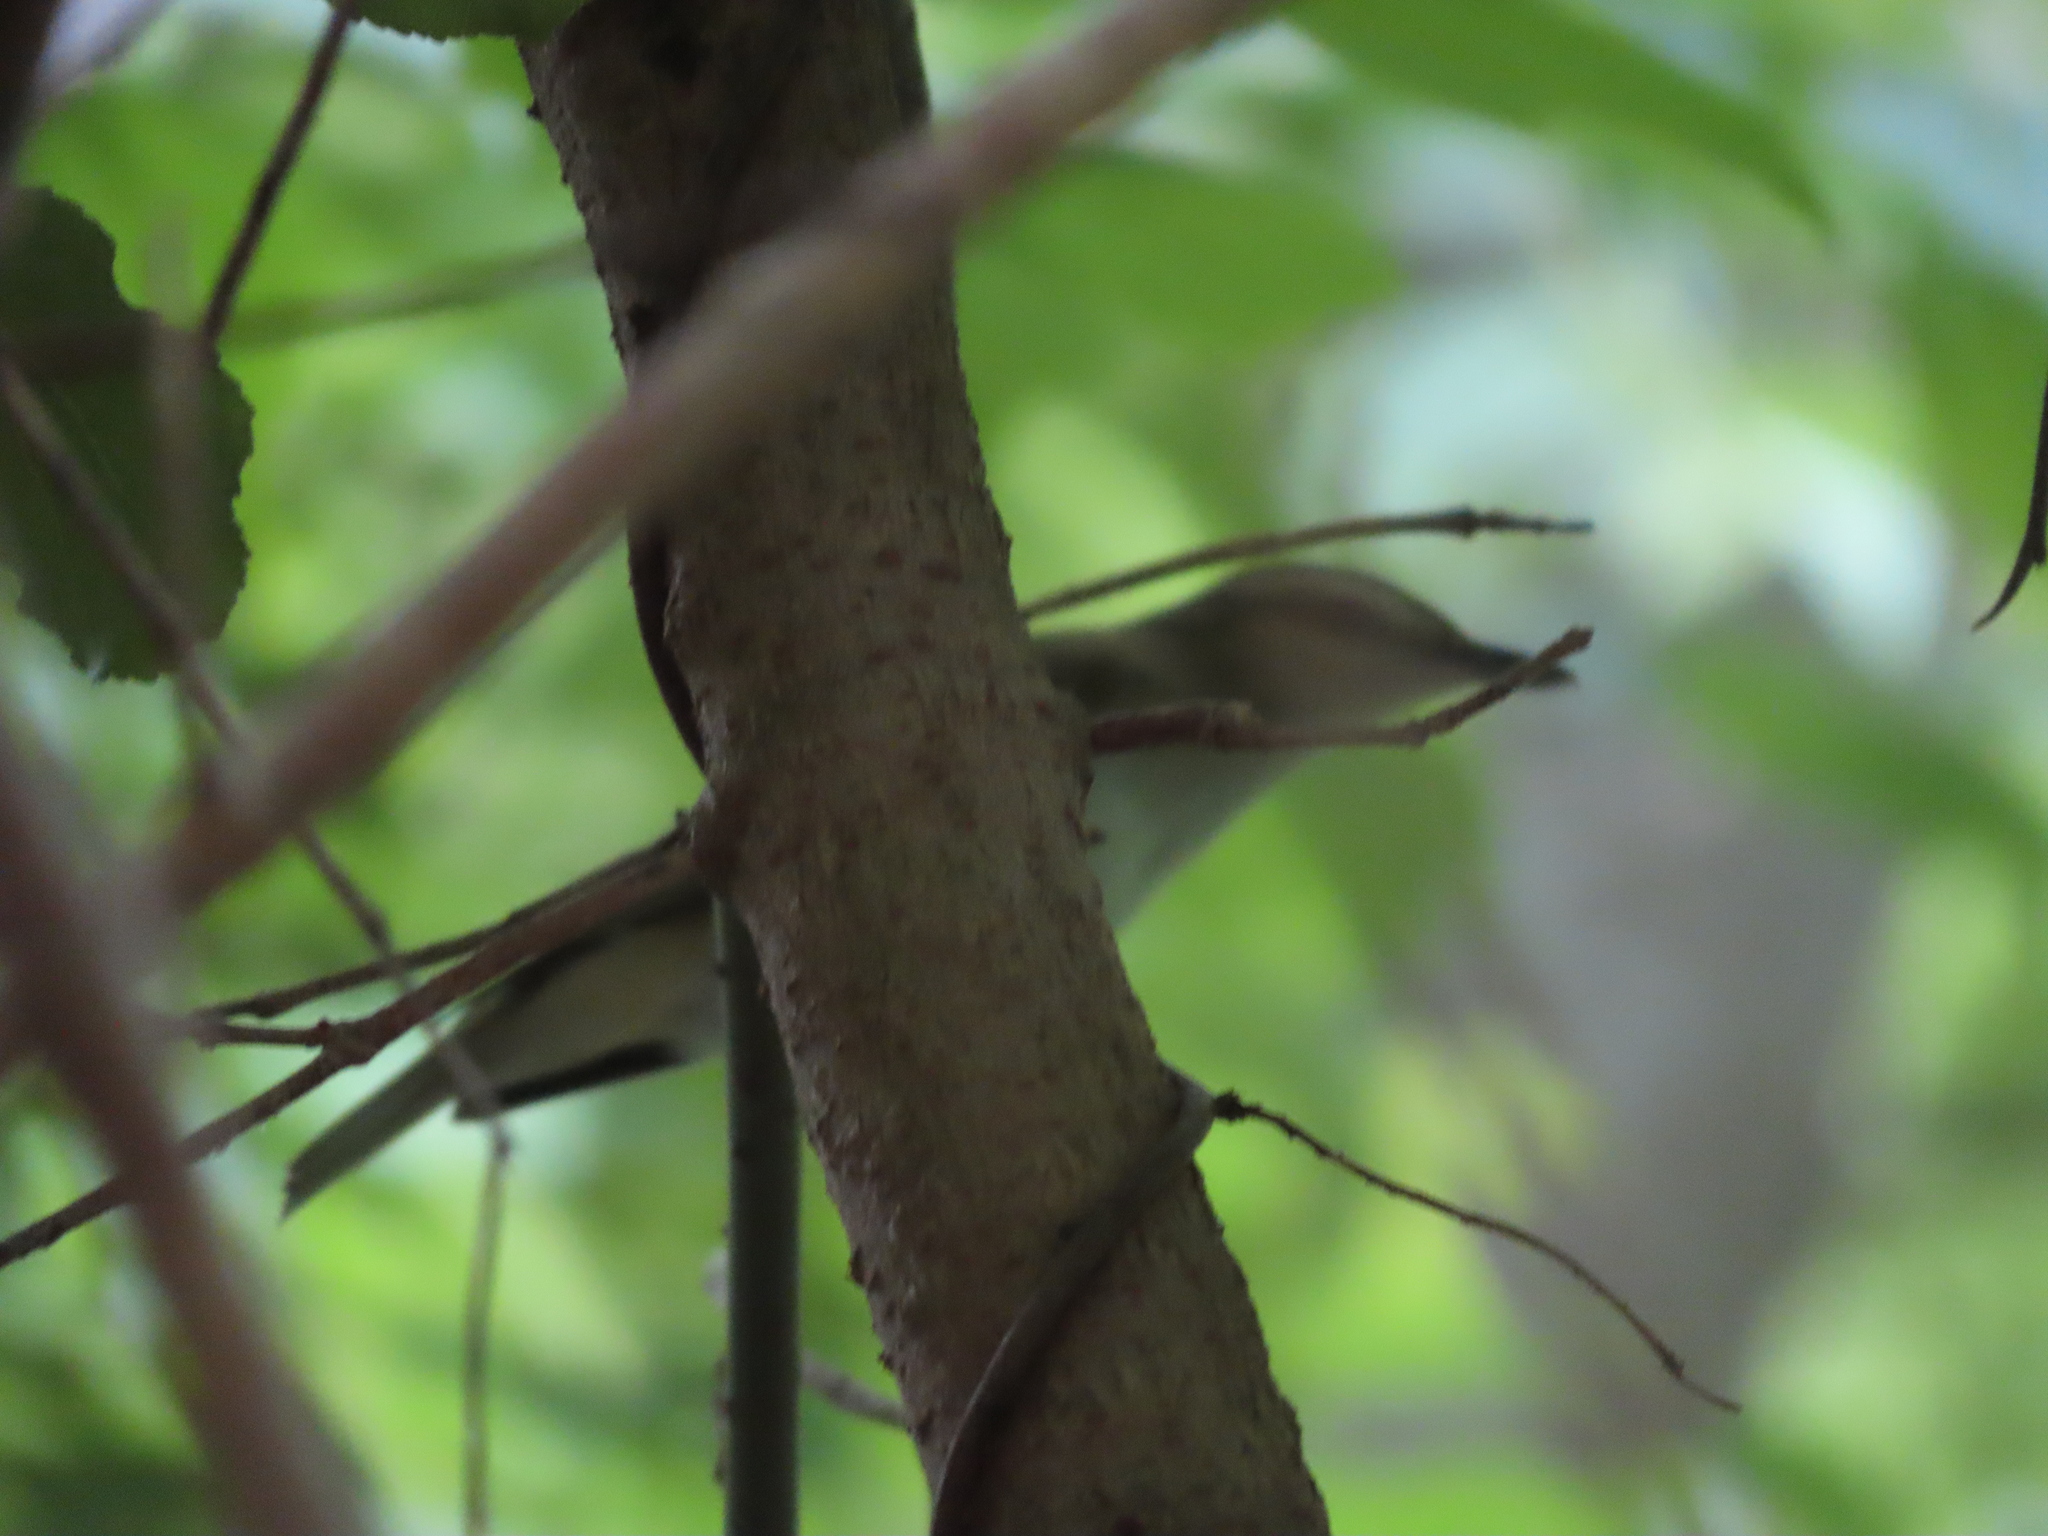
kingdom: Animalia
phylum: Chordata
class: Aves
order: Passeriformes
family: Vireonidae
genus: Vireo
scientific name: Vireo olivaceus
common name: Red-eyed vireo
